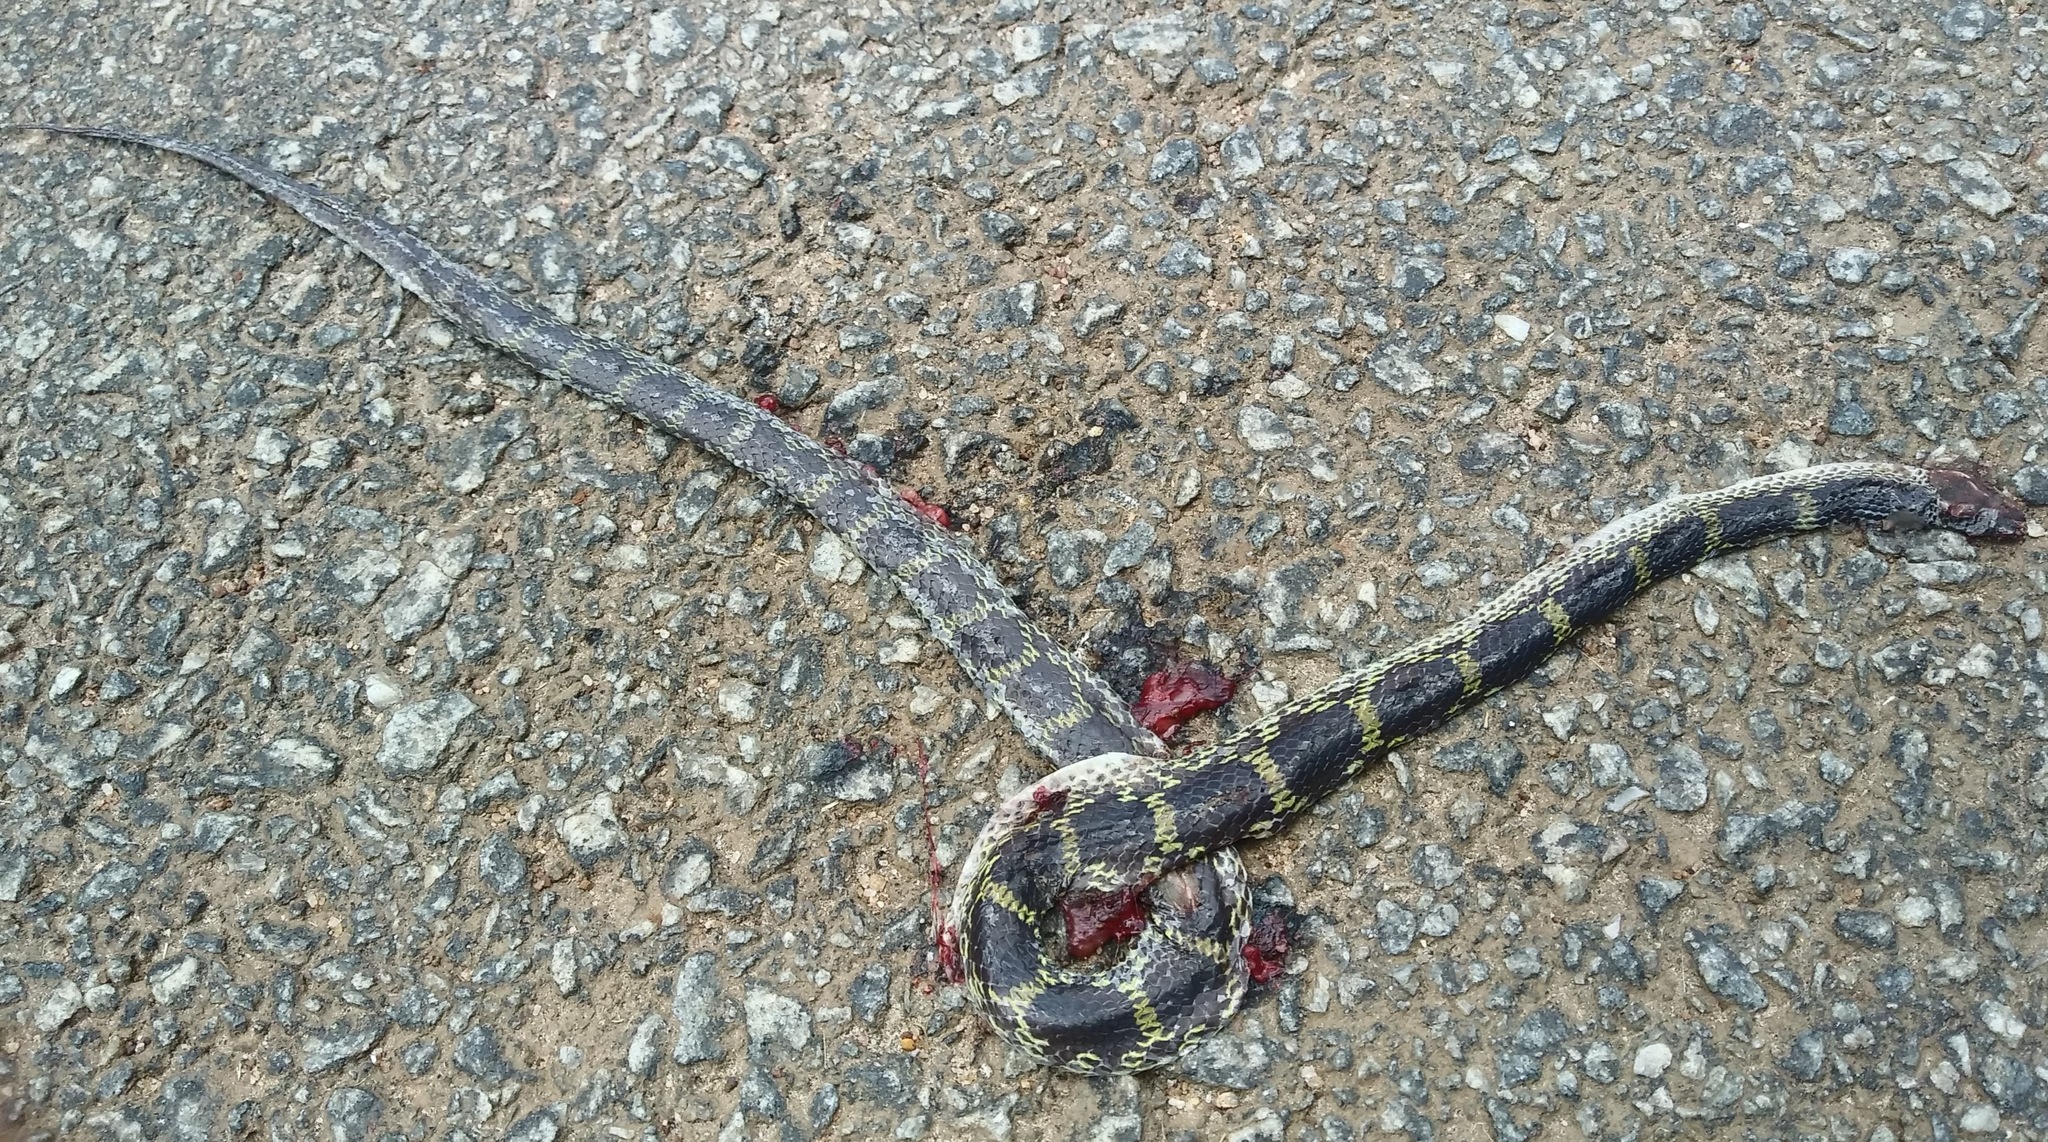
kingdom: Animalia
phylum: Chordata
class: Squamata
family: Colubridae
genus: Lycodon
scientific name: Lycodon travancoricus
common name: Travancore wolf snake
